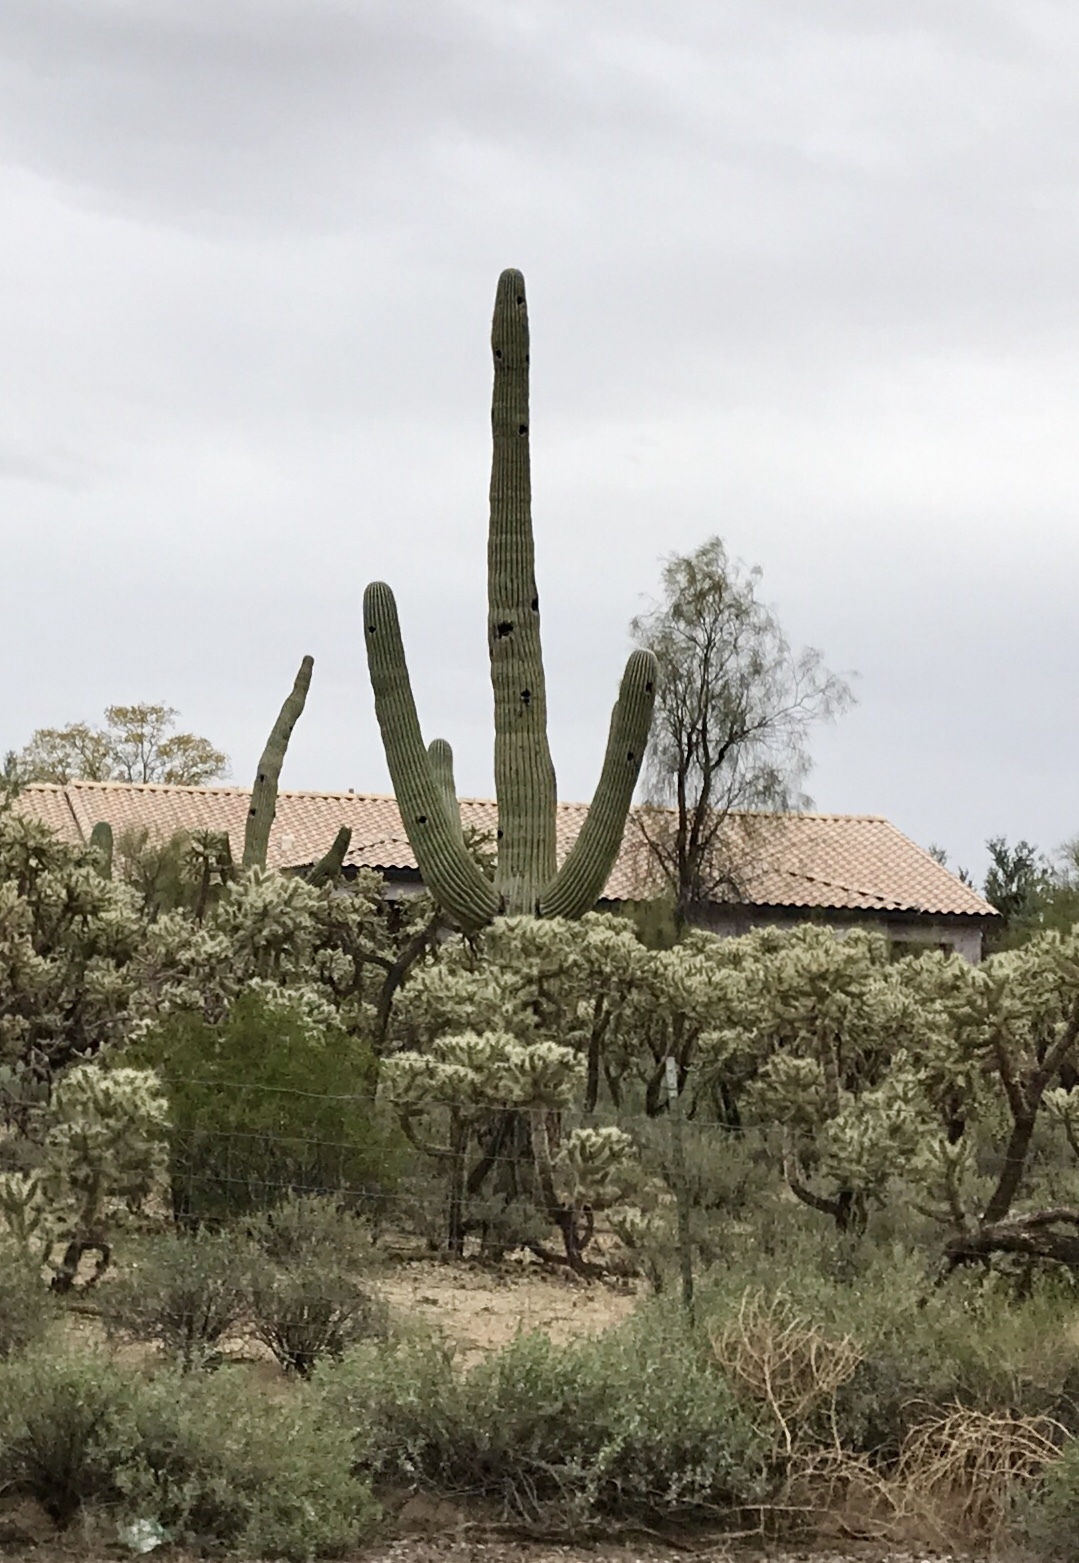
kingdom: Plantae
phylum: Tracheophyta
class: Magnoliopsida
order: Caryophyllales
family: Cactaceae
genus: Carnegiea
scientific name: Carnegiea gigantea
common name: Saguaro
